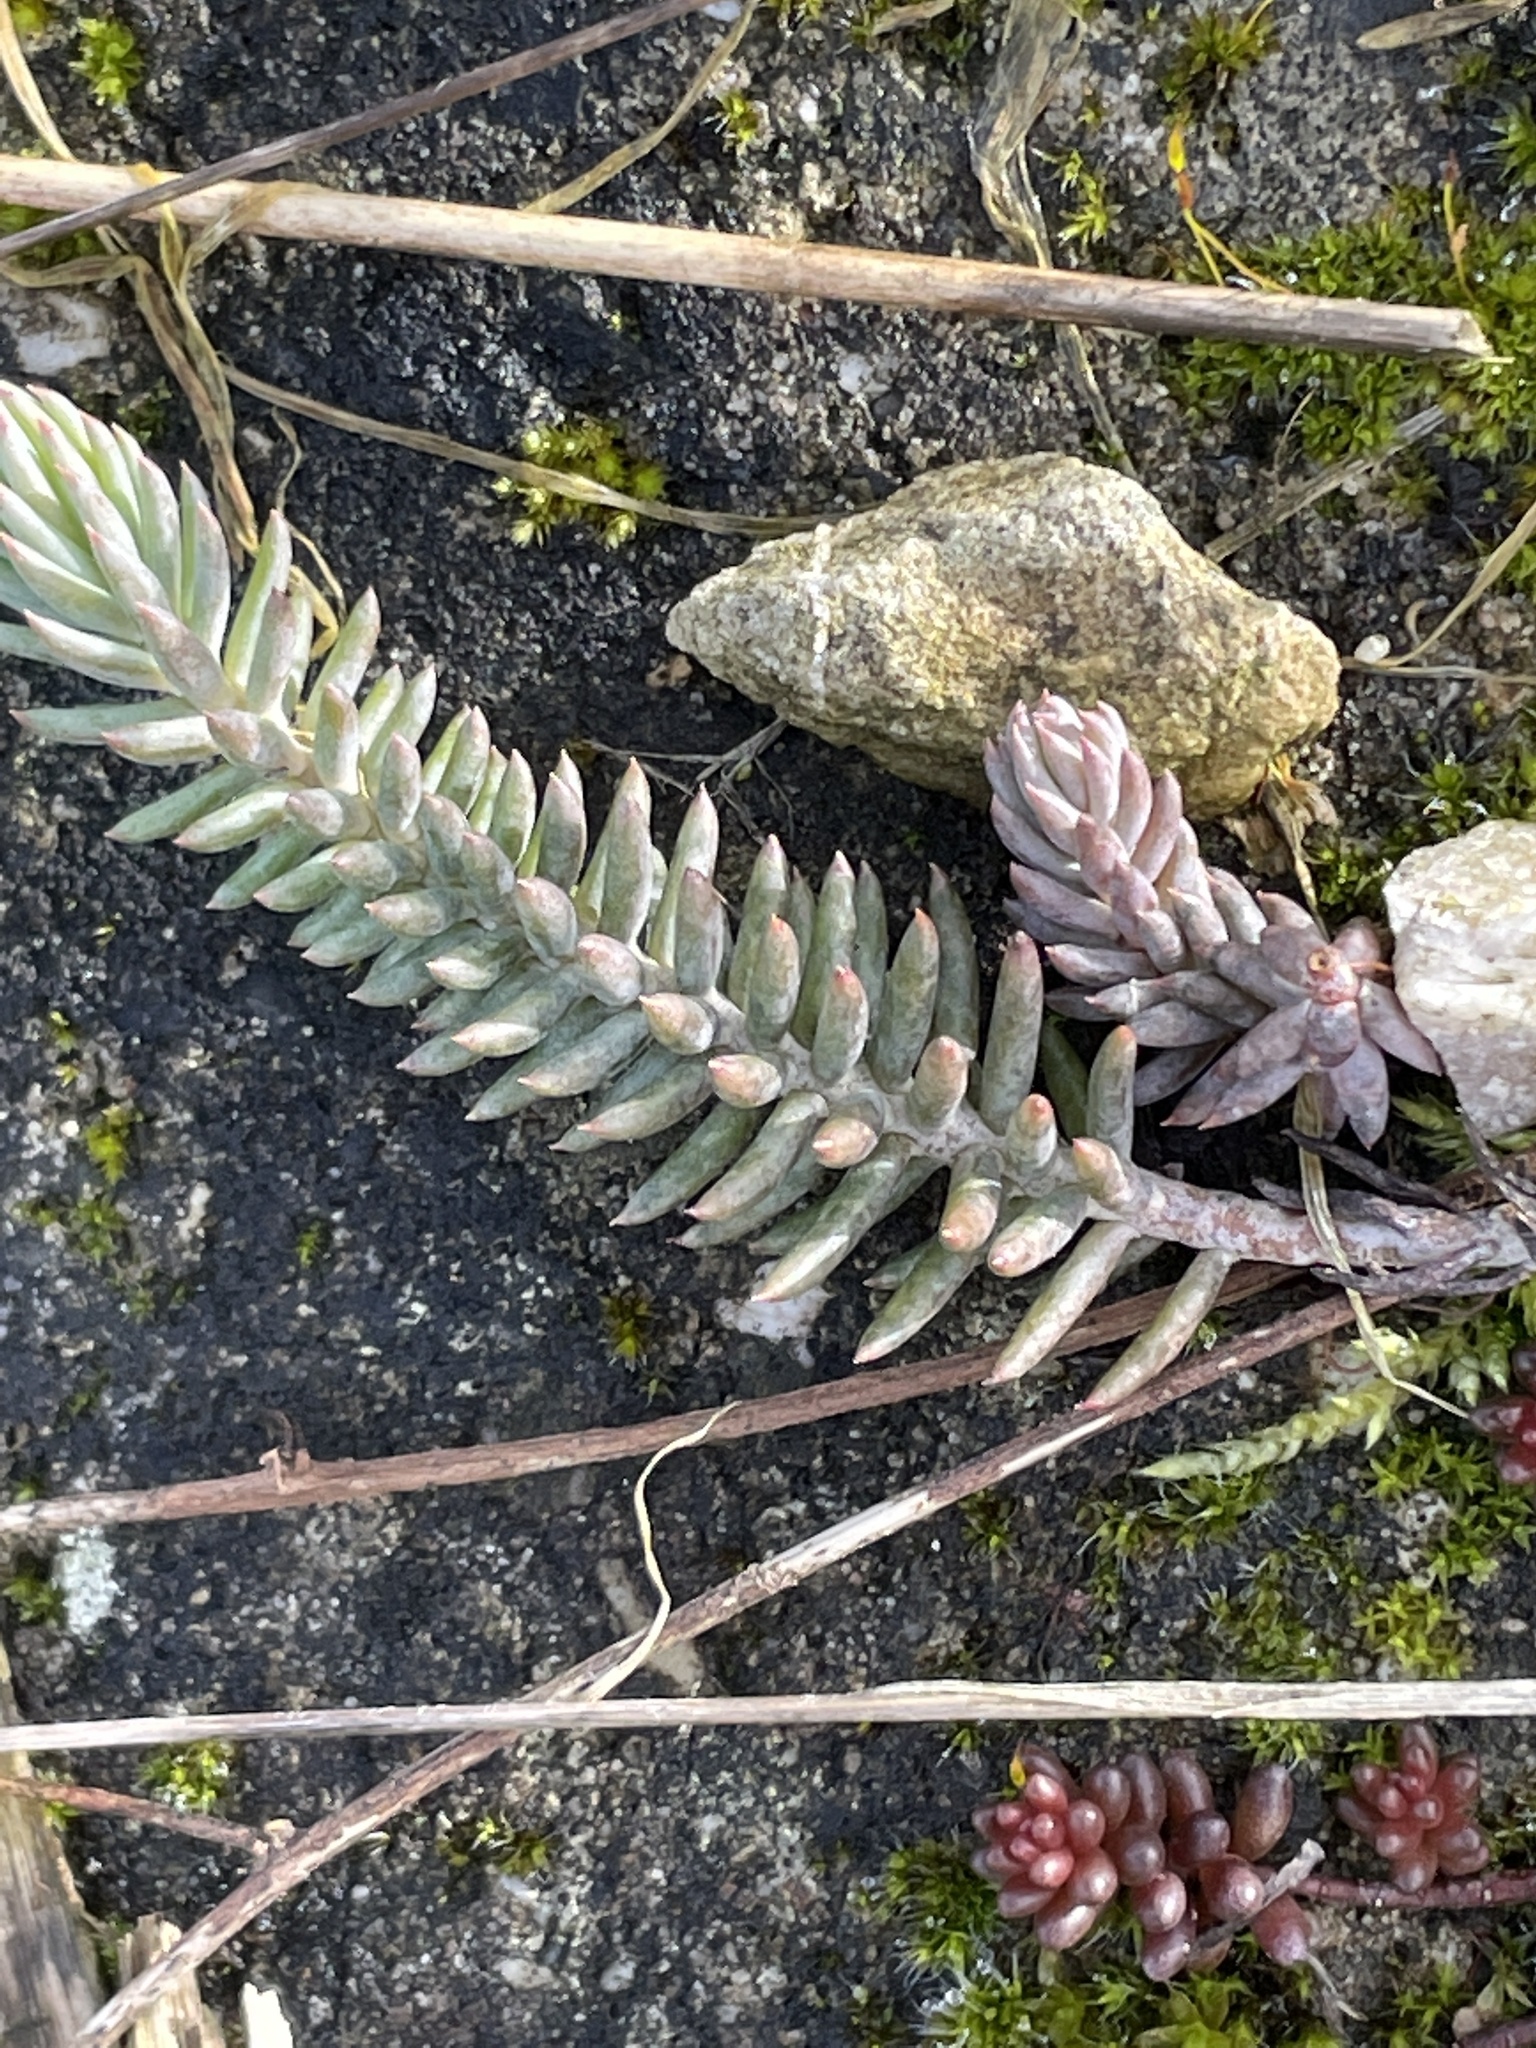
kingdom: Plantae
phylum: Tracheophyta
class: Magnoliopsida
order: Saxifragales
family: Crassulaceae
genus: Petrosedum
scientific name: Petrosedum rupestre
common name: Jenny's stonecrop
